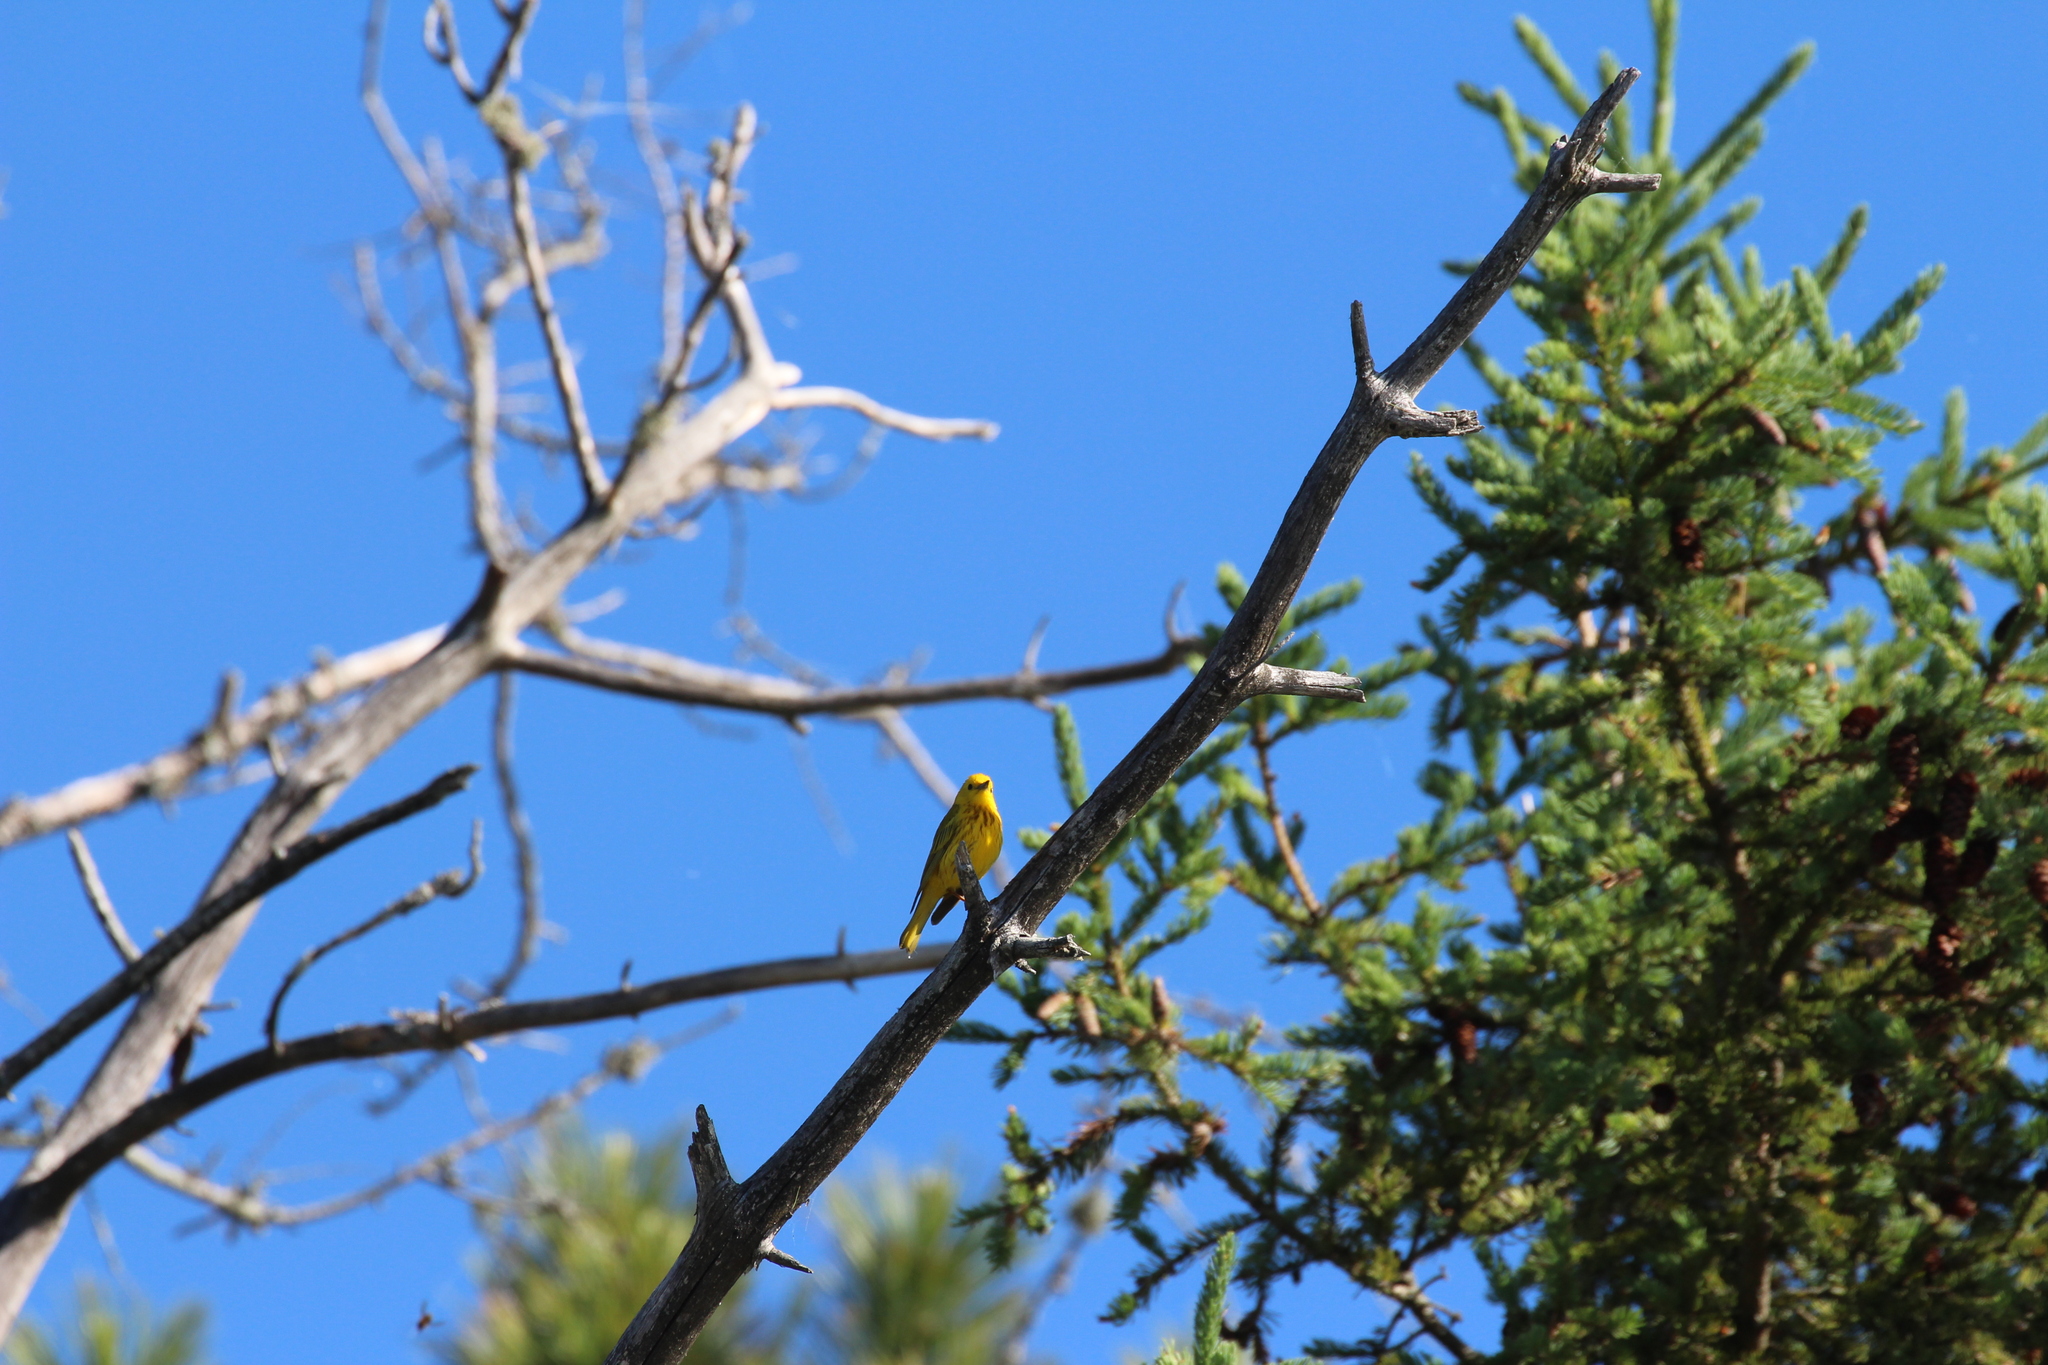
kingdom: Animalia
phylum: Chordata
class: Aves
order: Passeriformes
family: Parulidae
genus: Setophaga
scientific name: Setophaga petechia
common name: Yellow warbler
